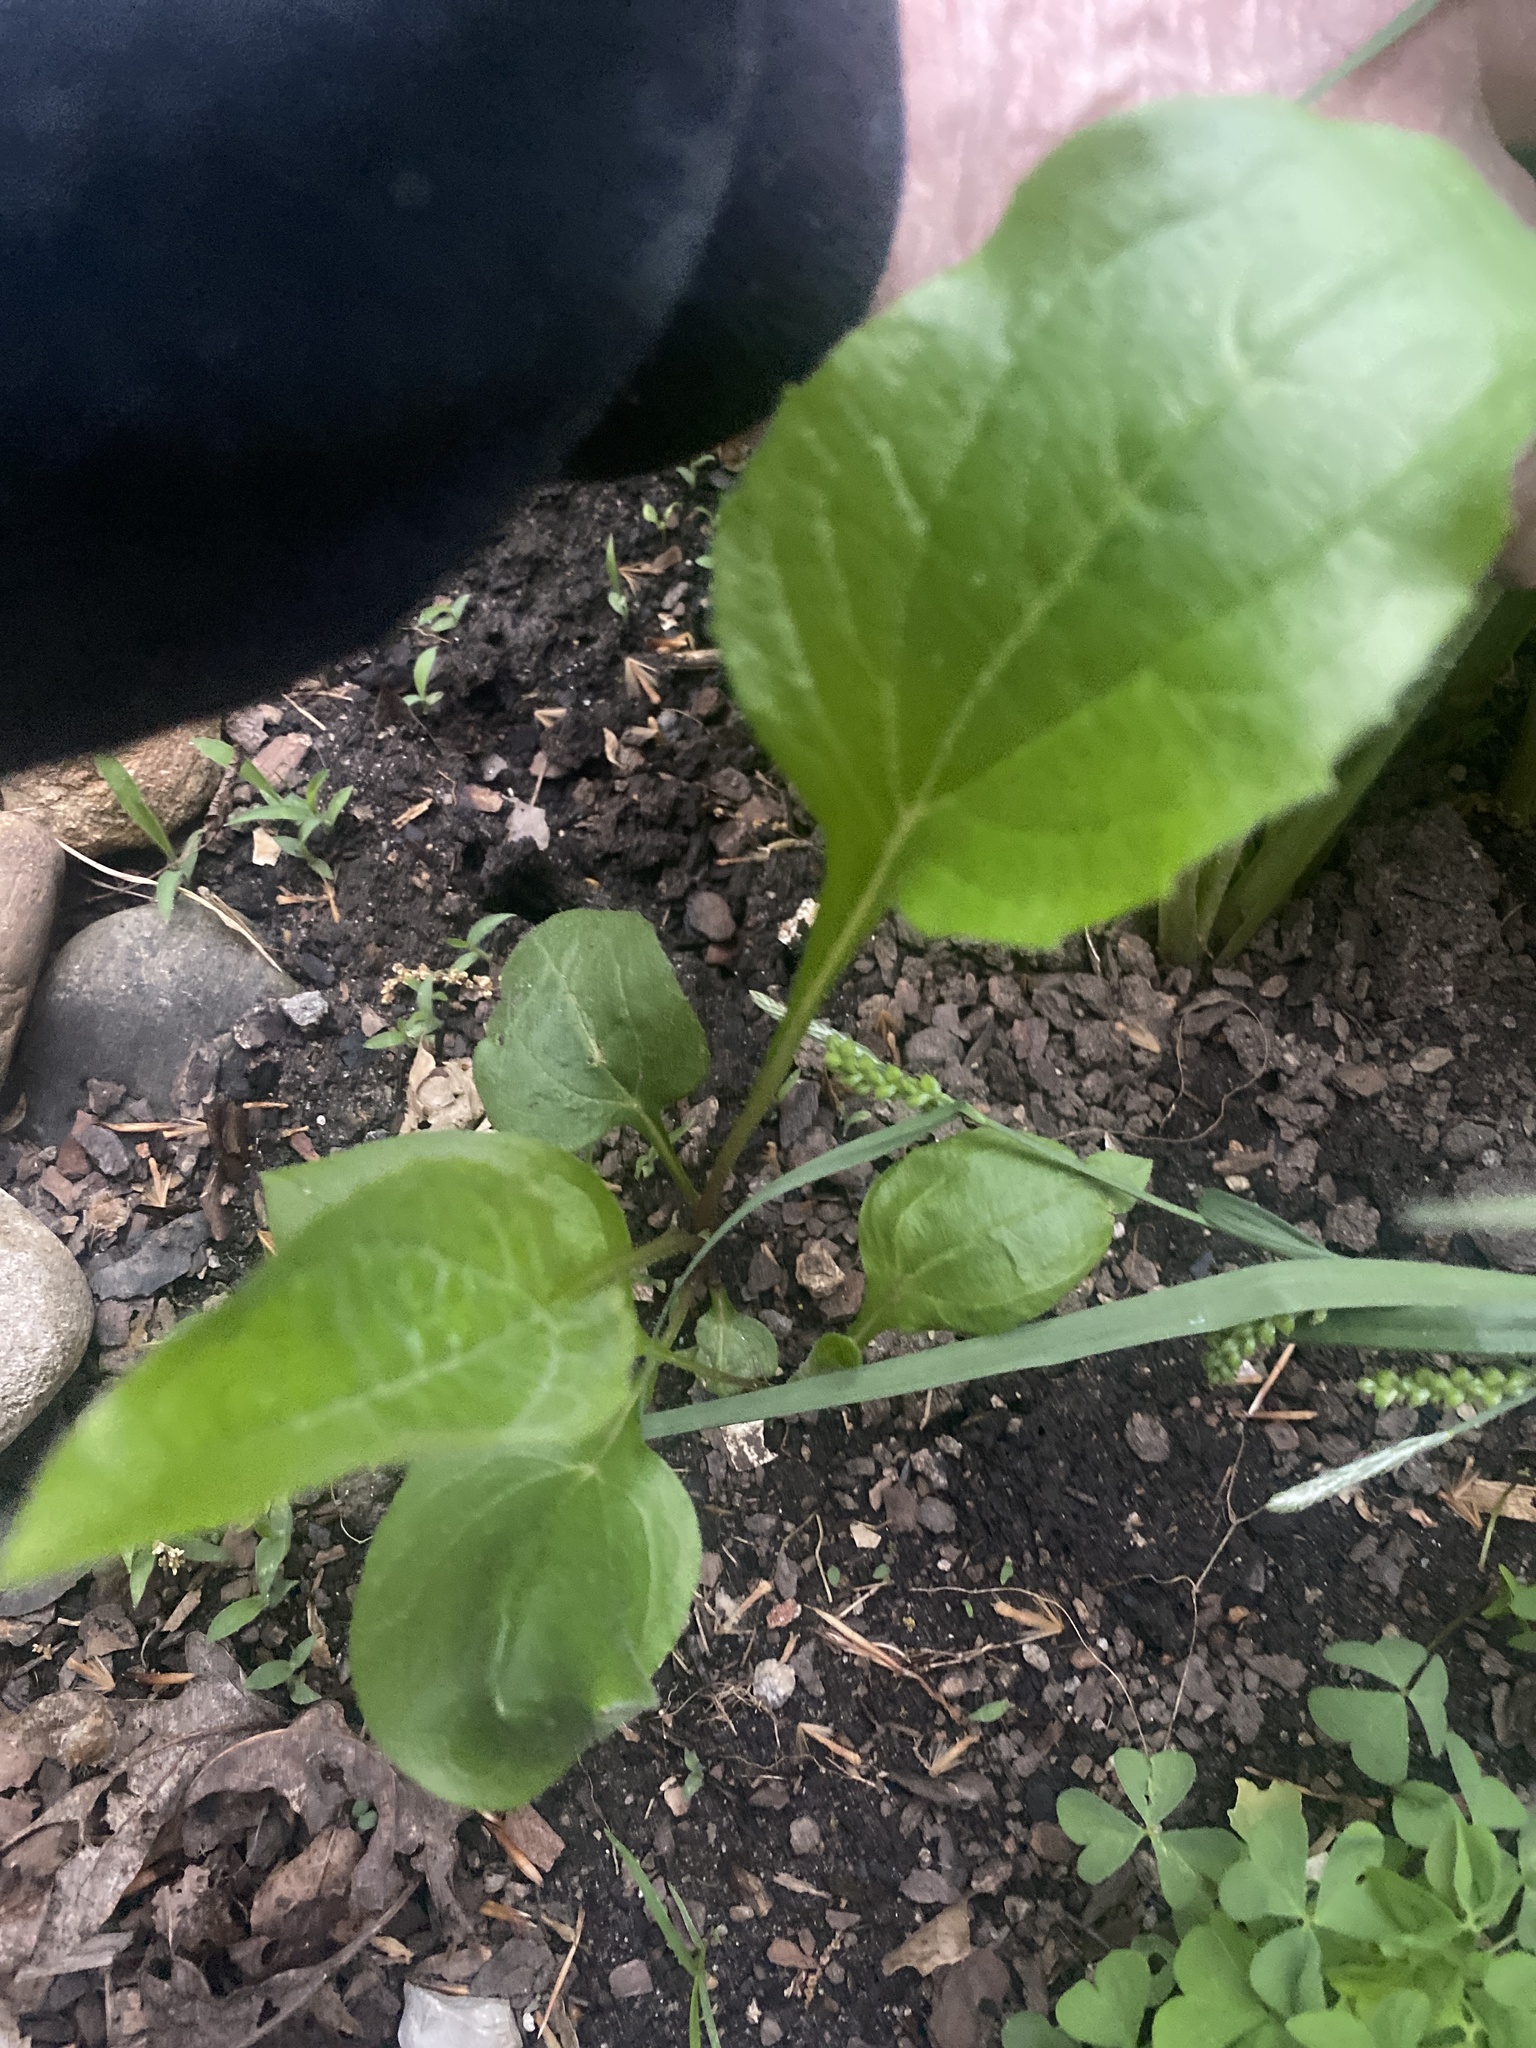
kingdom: Plantae
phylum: Tracheophyta
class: Magnoliopsida
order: Lamiales
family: Plantaginaceae
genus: Plantago
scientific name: Plantago rugelii
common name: American plantain
